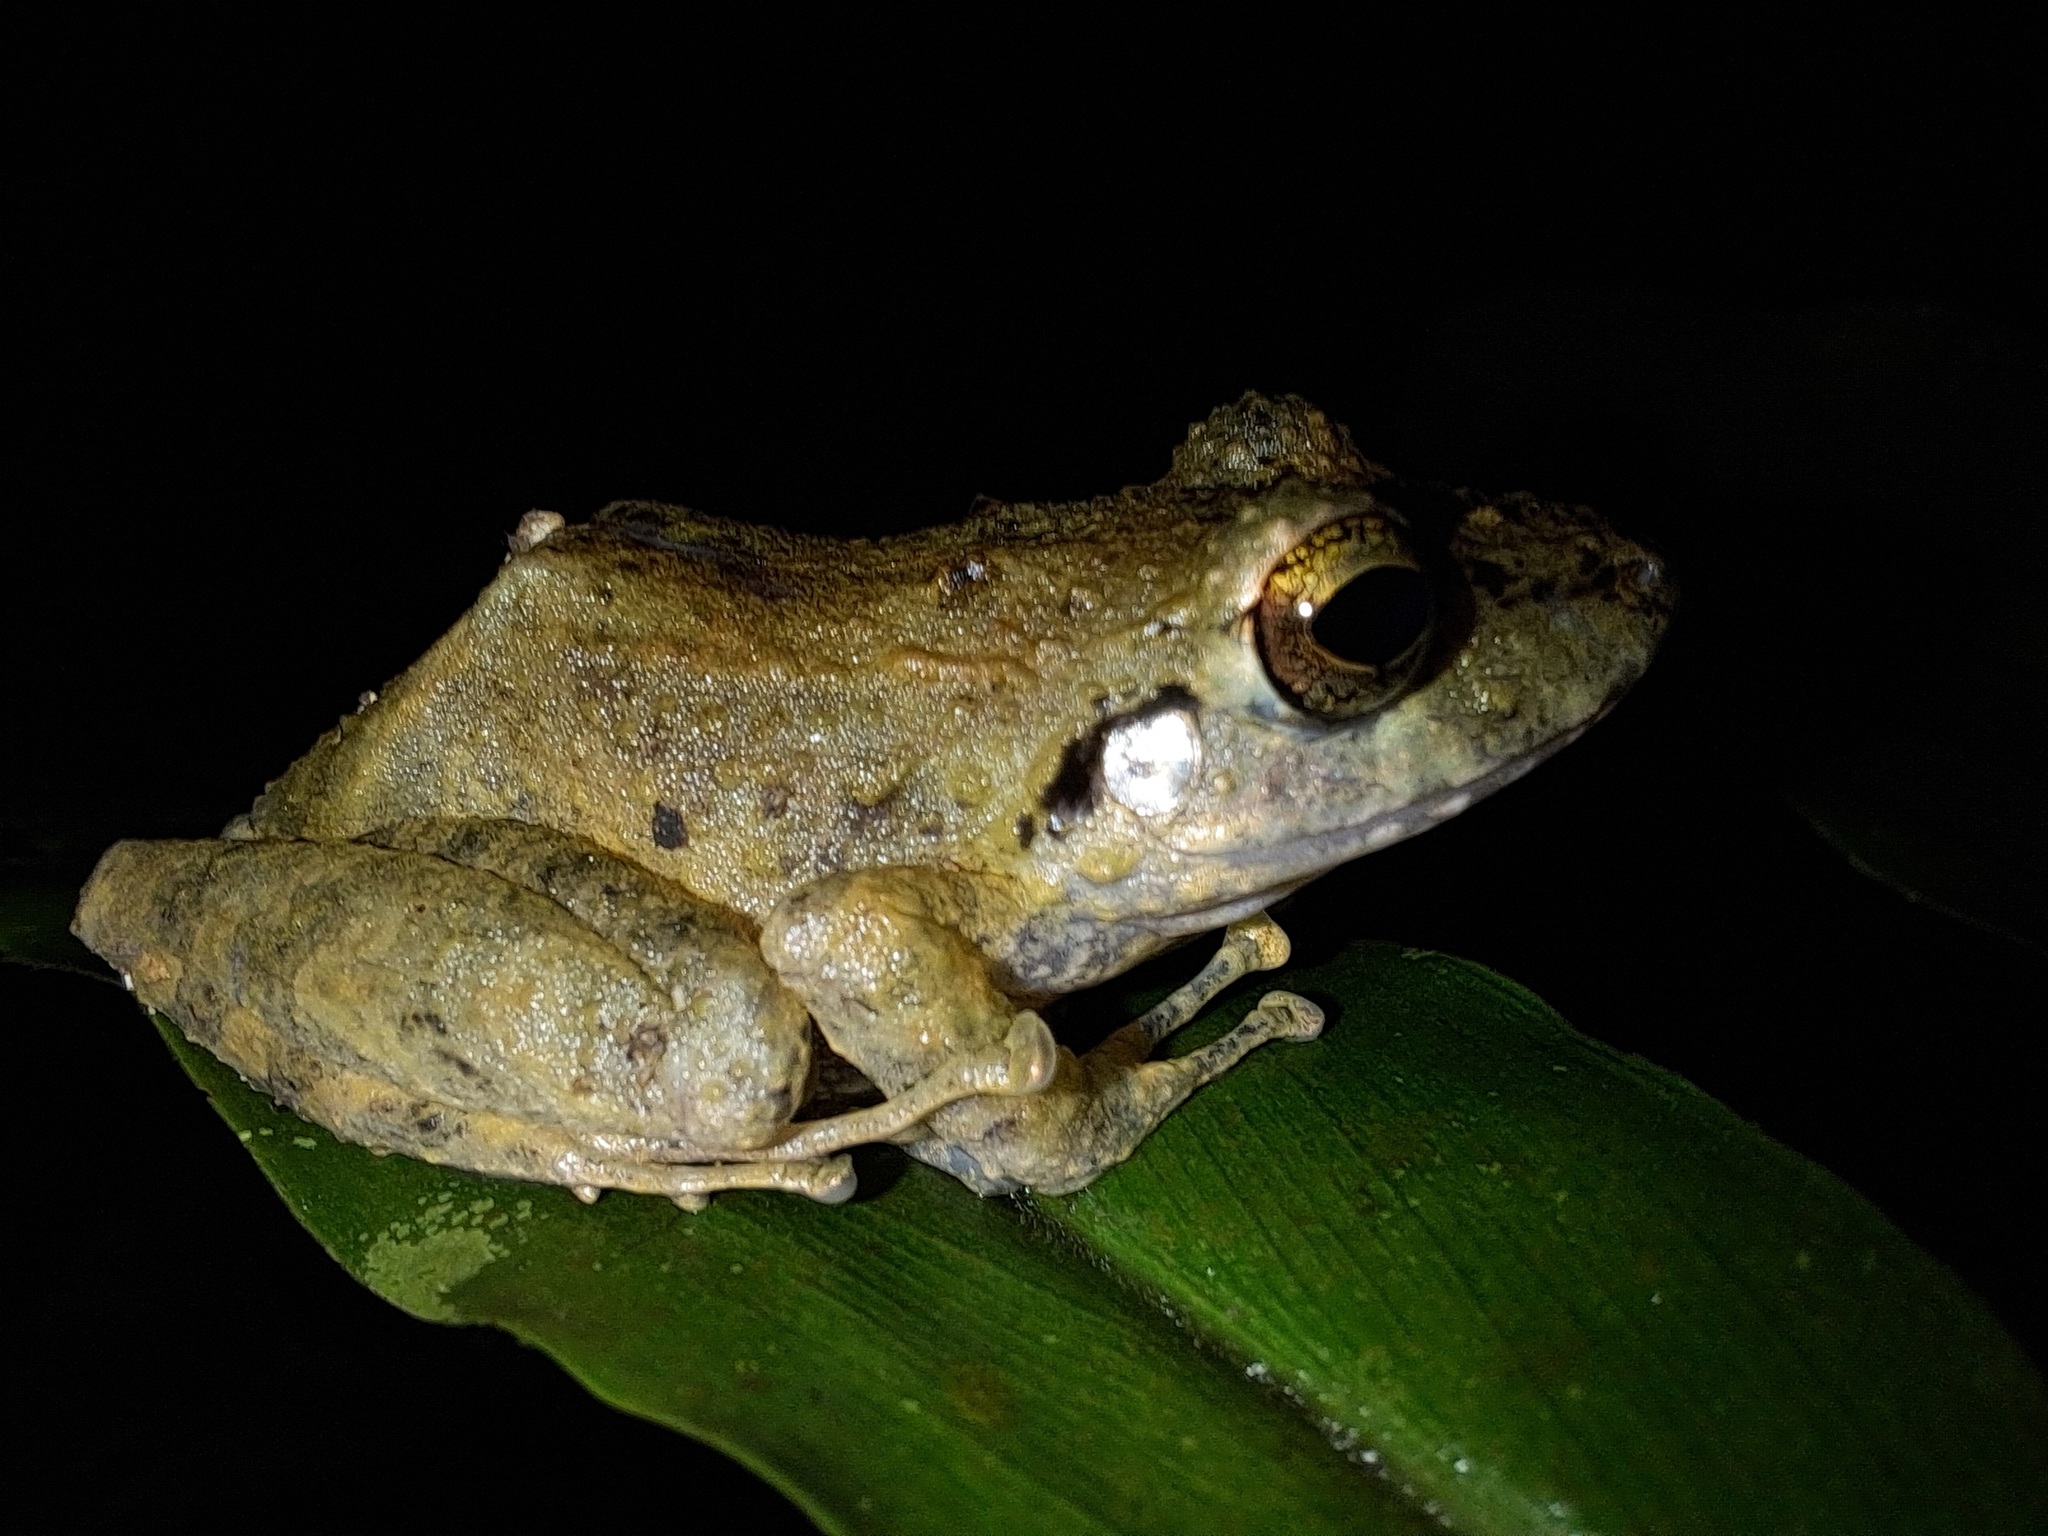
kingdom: Animalia
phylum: Chordata
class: Amphibia
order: Anura
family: Craugastoridae
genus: Pristimantis
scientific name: Pristimantis lanthanites
